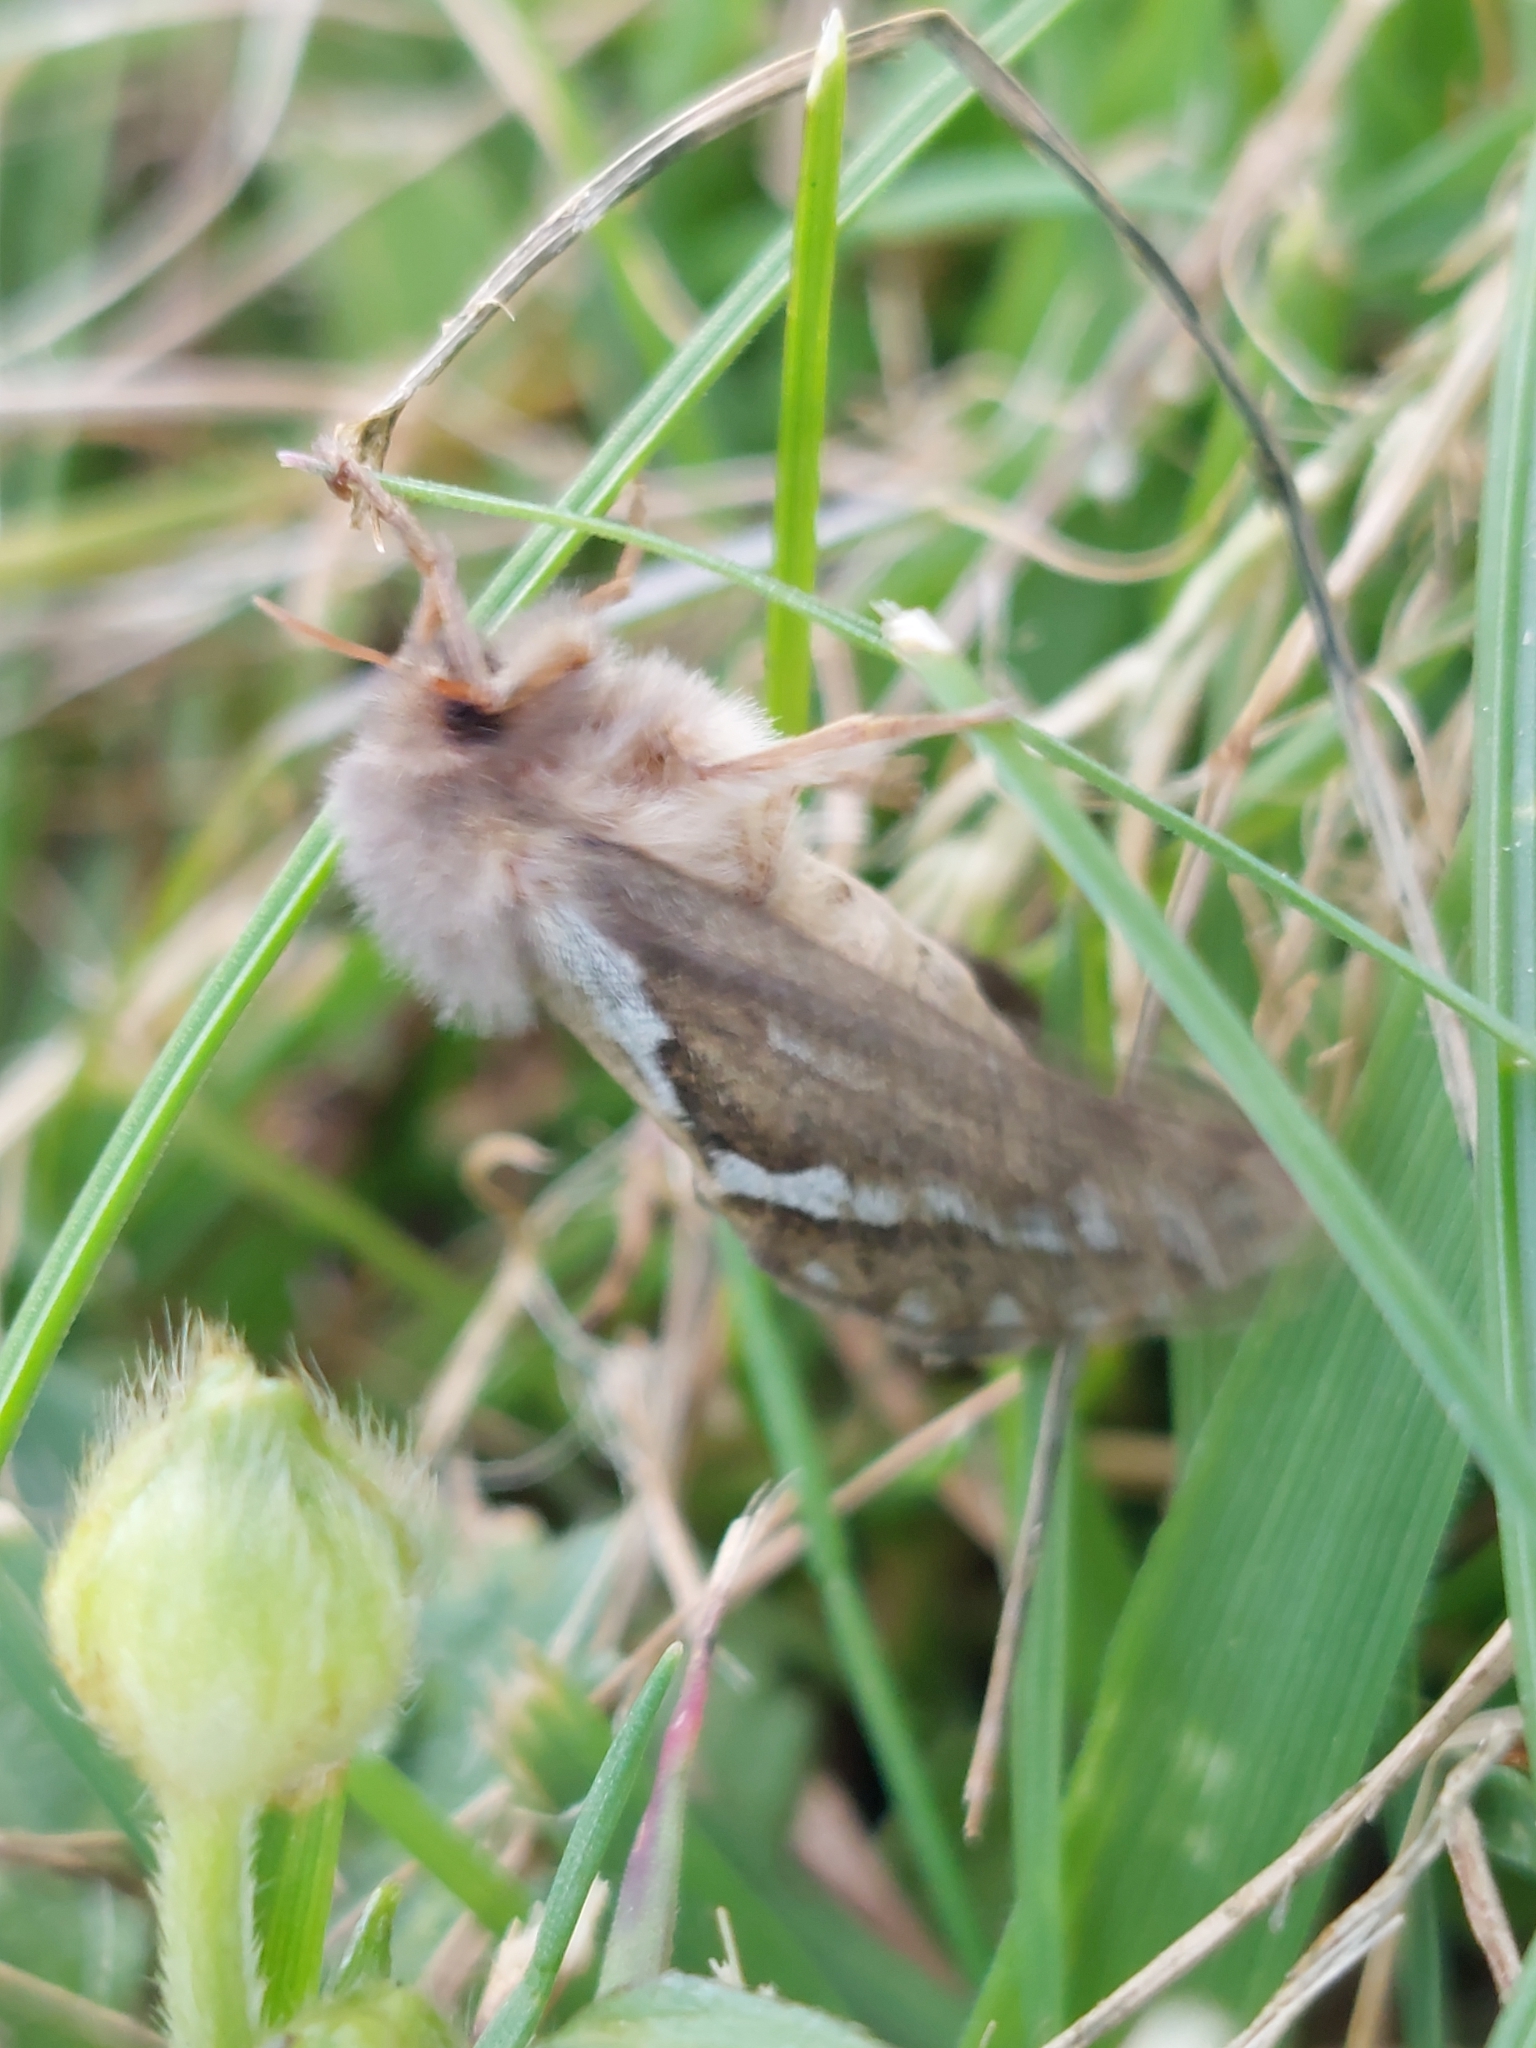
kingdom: Animalia
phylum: Arthropoda
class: Insecta
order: Lepidoptera
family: Hepialidae
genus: Korscheltellus
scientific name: Korscheltellus lupulina
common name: Common swift
